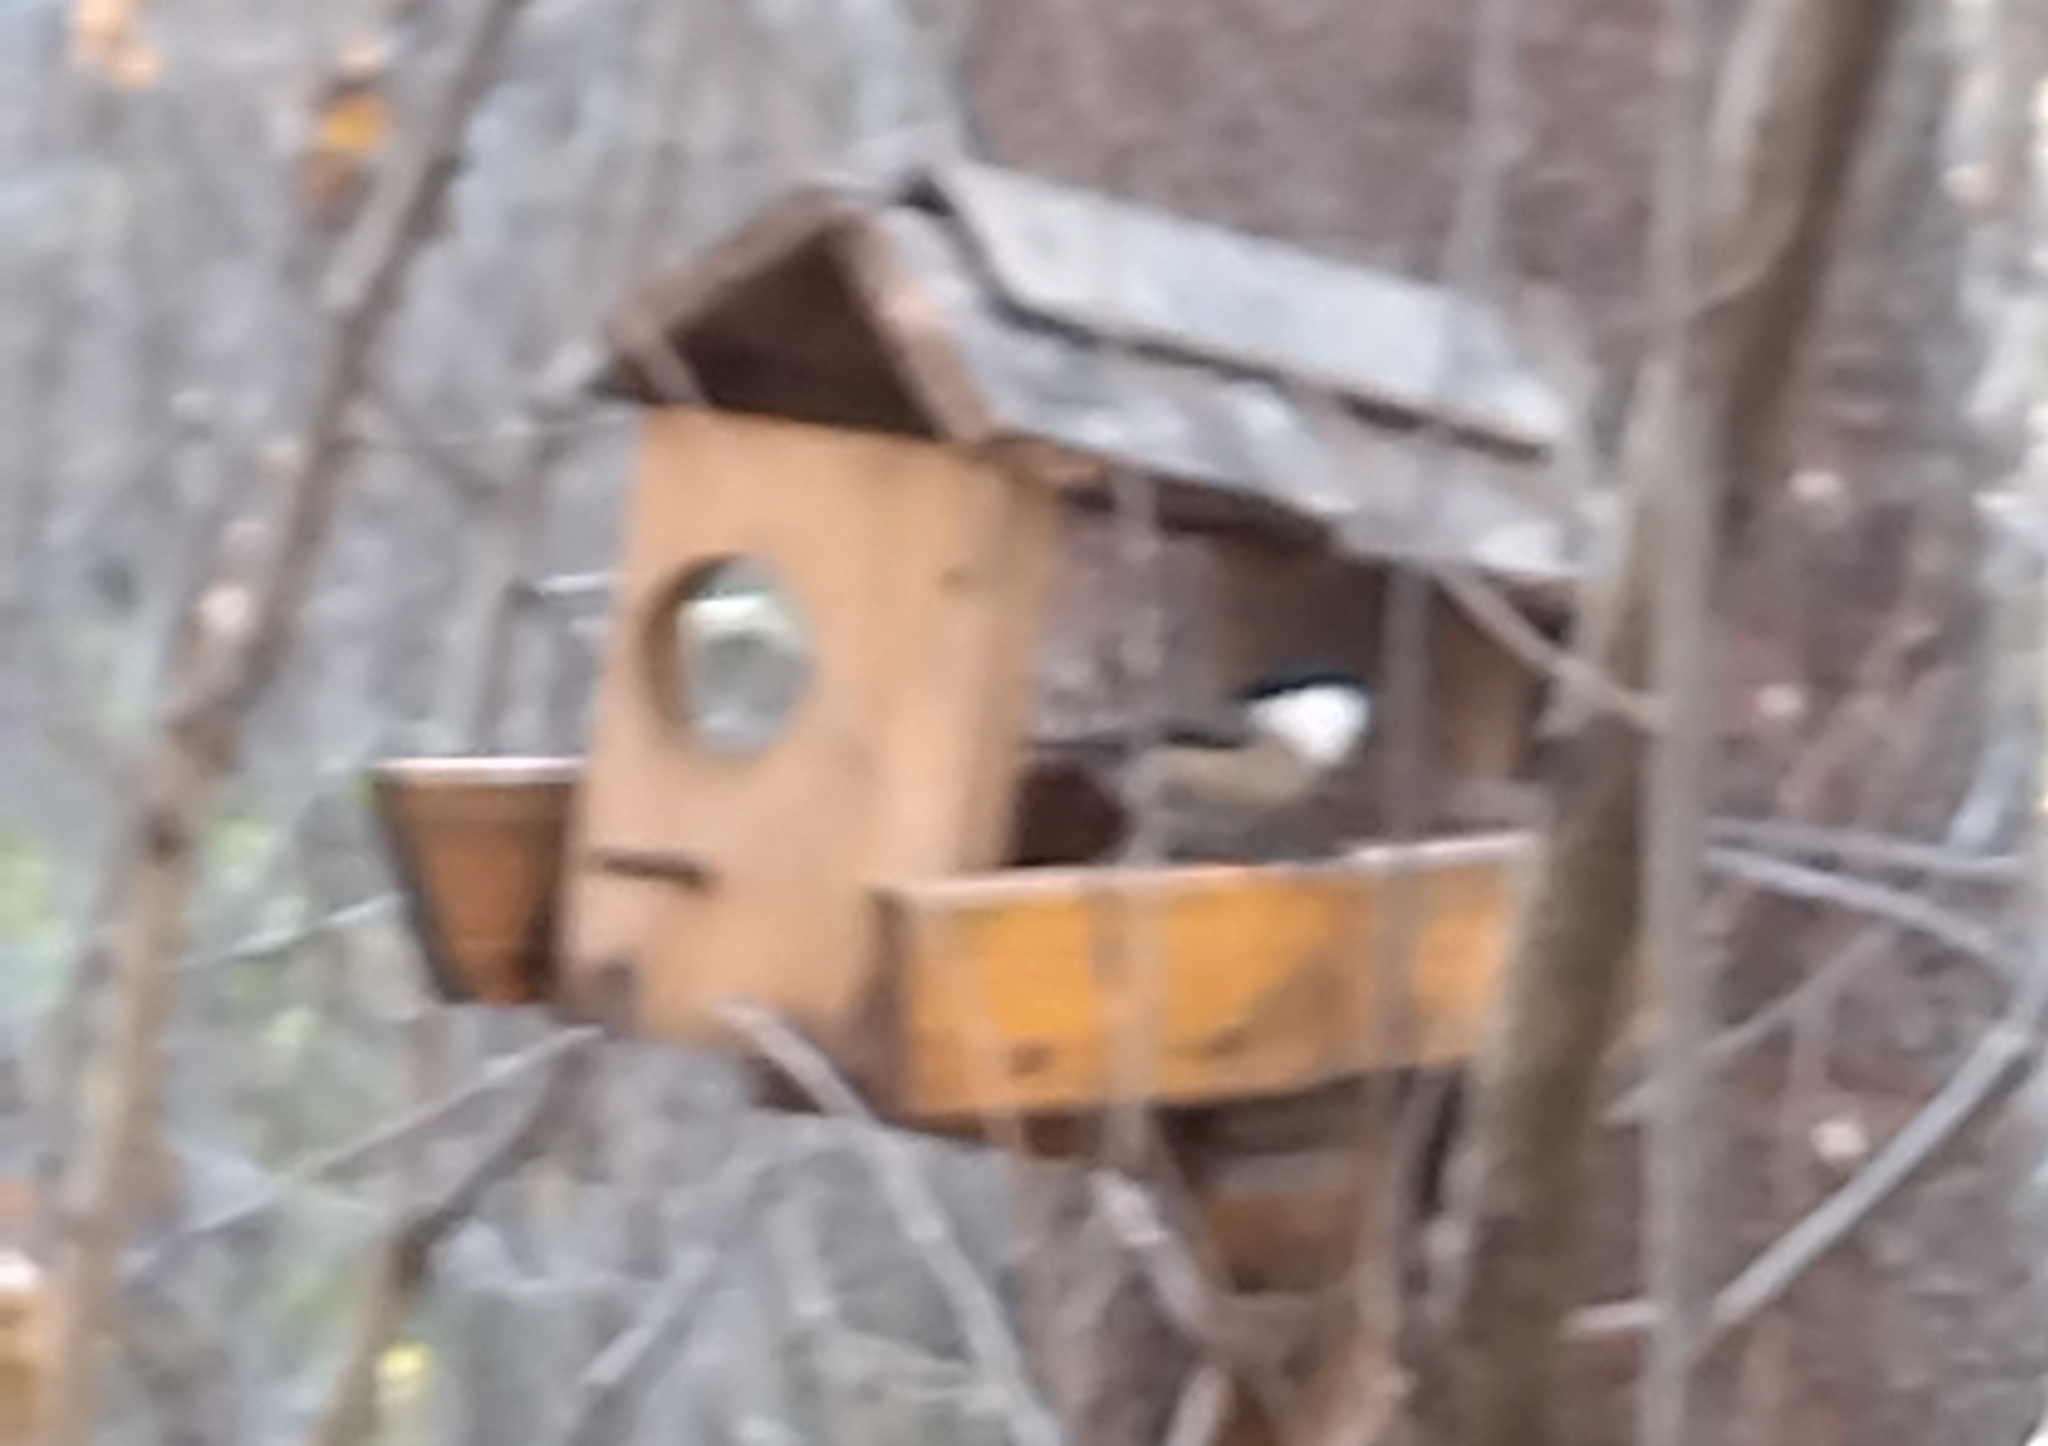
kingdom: Animalia
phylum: Chordata
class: Aves
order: Passeriformes
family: Paridae
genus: Poecile
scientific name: Poecile montanus
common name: Willow tit
